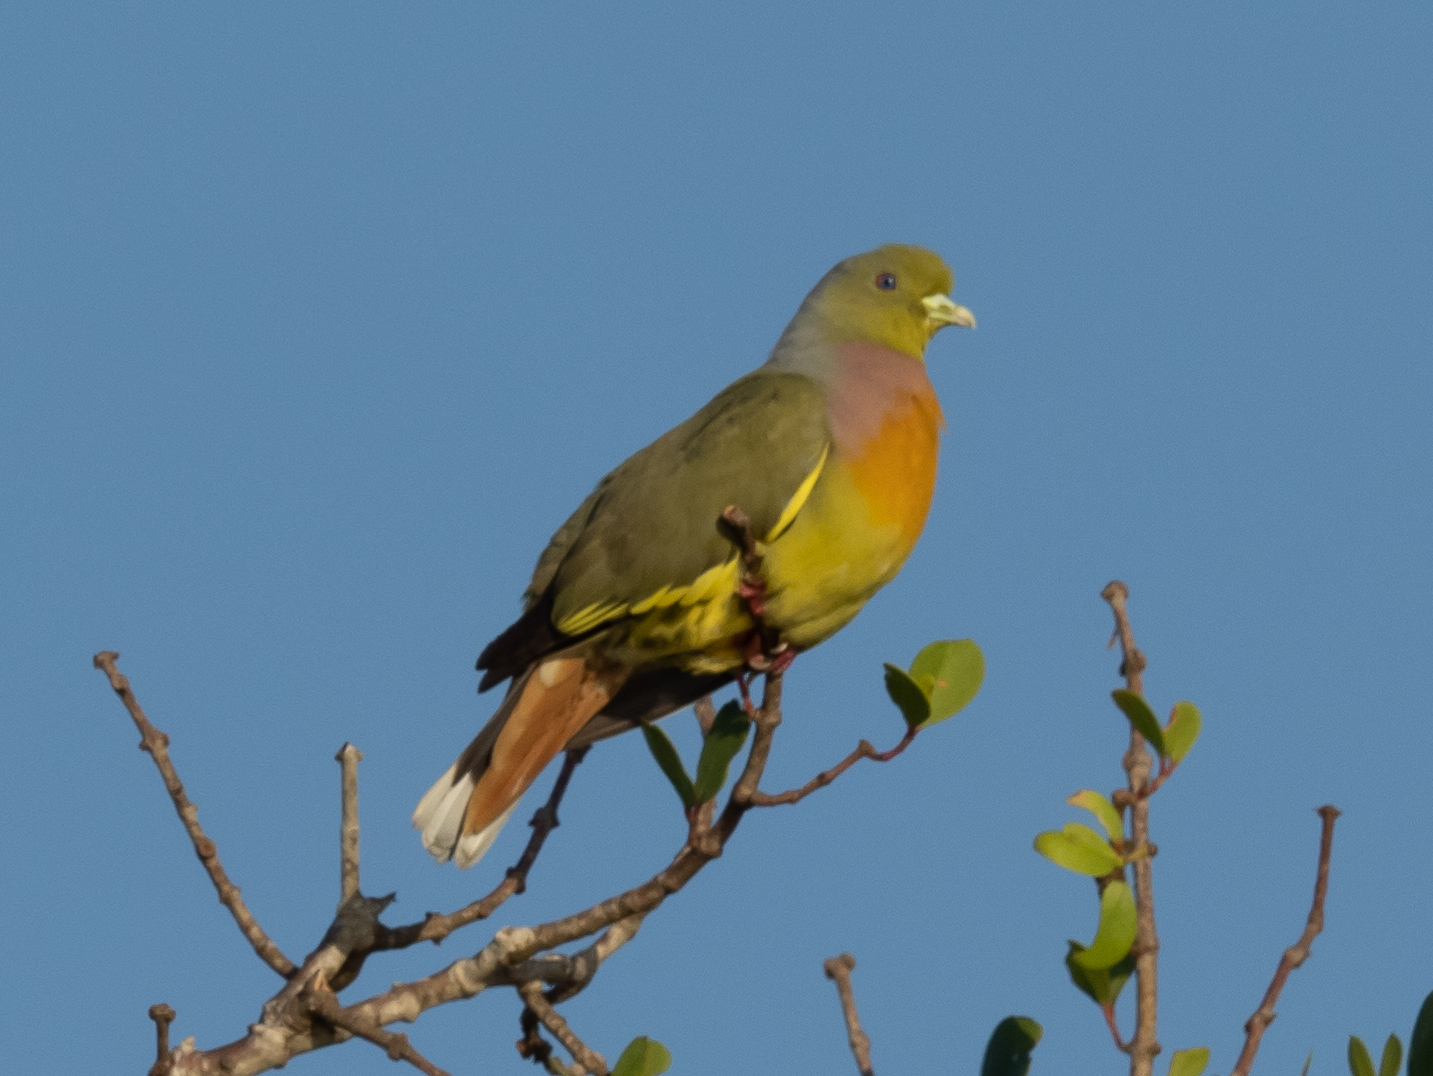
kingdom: Animalia
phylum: Chordata
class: Aves
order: Columbiformes
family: Columbidae
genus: Treron
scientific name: Treron bicinctus
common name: Orange-breasted green pigeon
